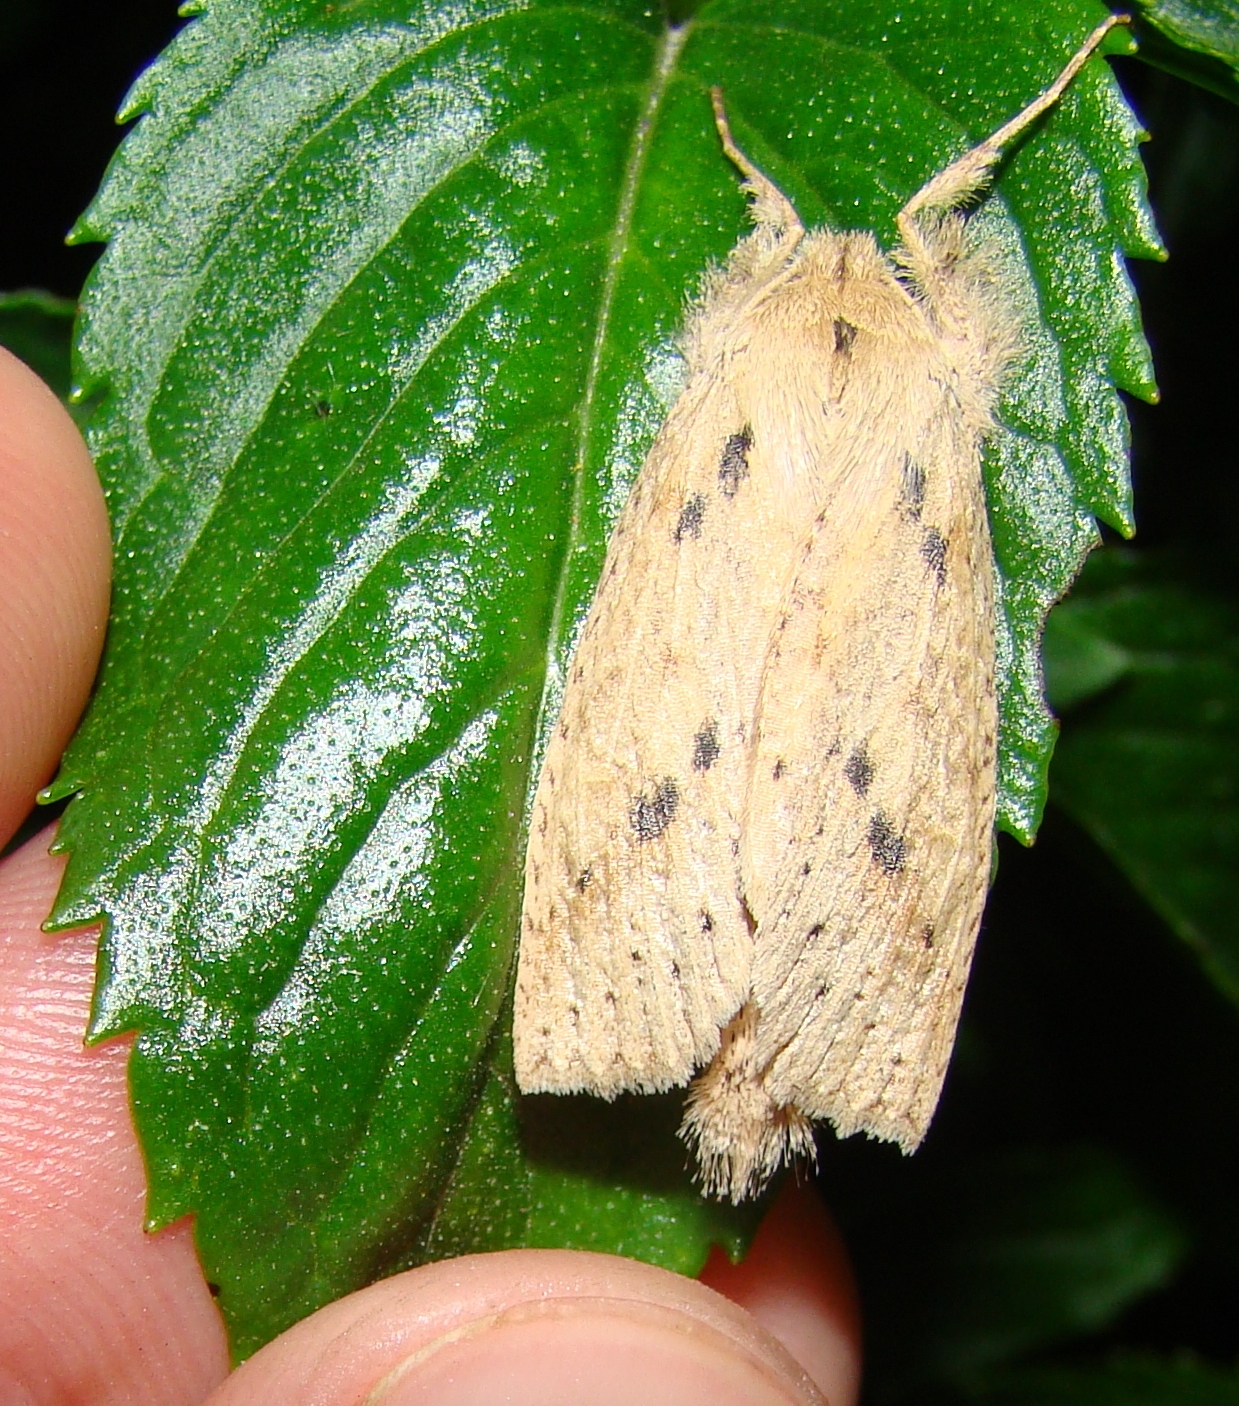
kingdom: Animalia
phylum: Arthropoda
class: Insecta
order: Lepidoptera
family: Geometridae
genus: Declana
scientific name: Declana leptomera
